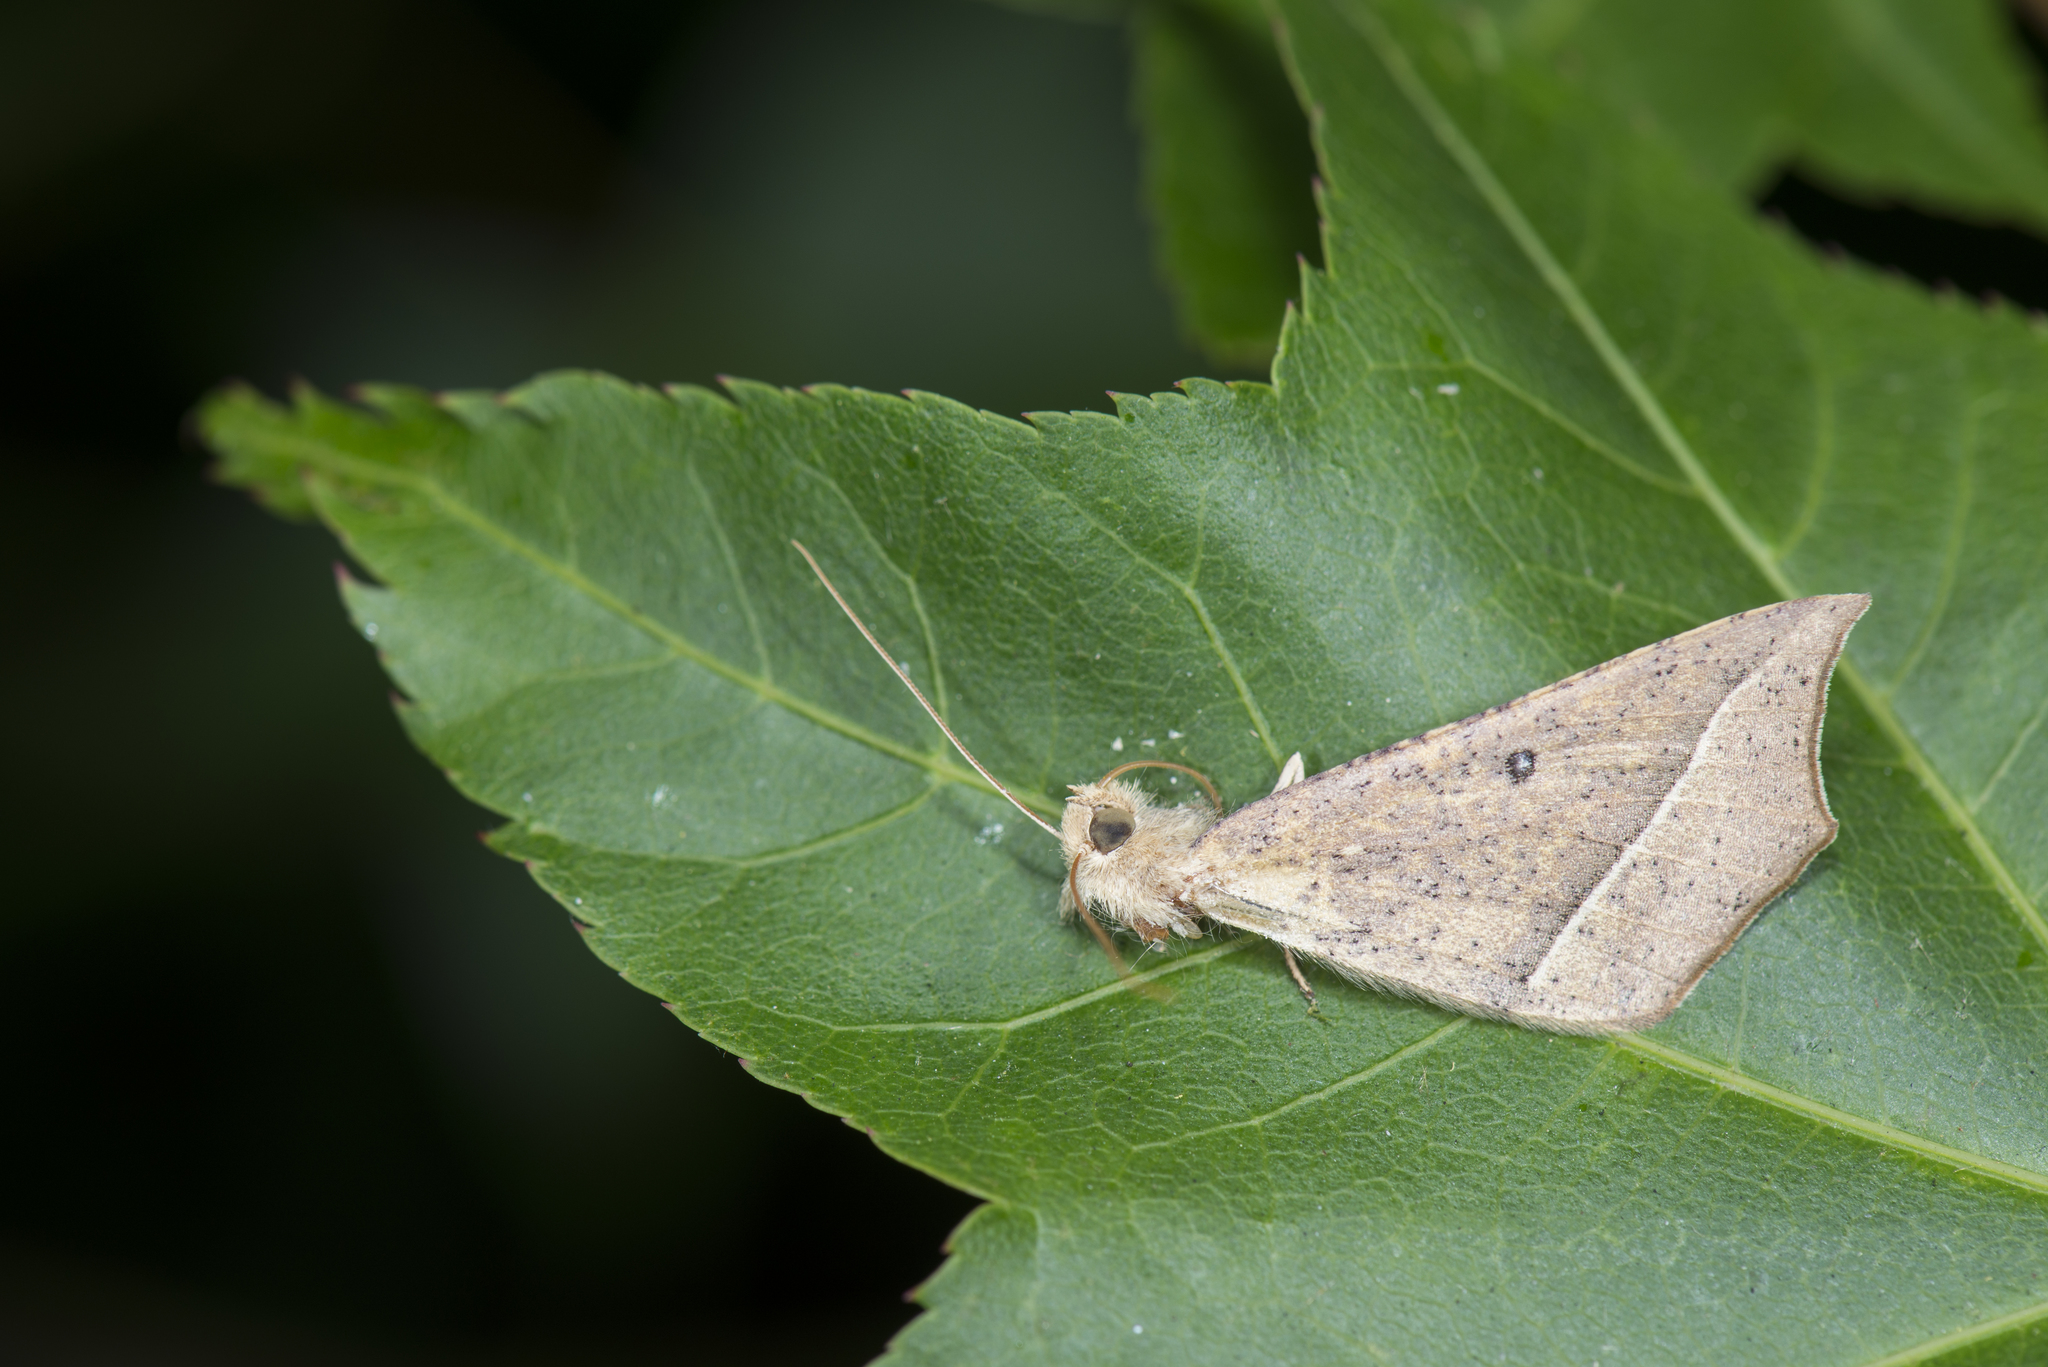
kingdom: Animalia
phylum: Arthropoda
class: Insecta
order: Lepidoptera
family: Geometridae
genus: Odontopera
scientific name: Odontopera albiguttulata
